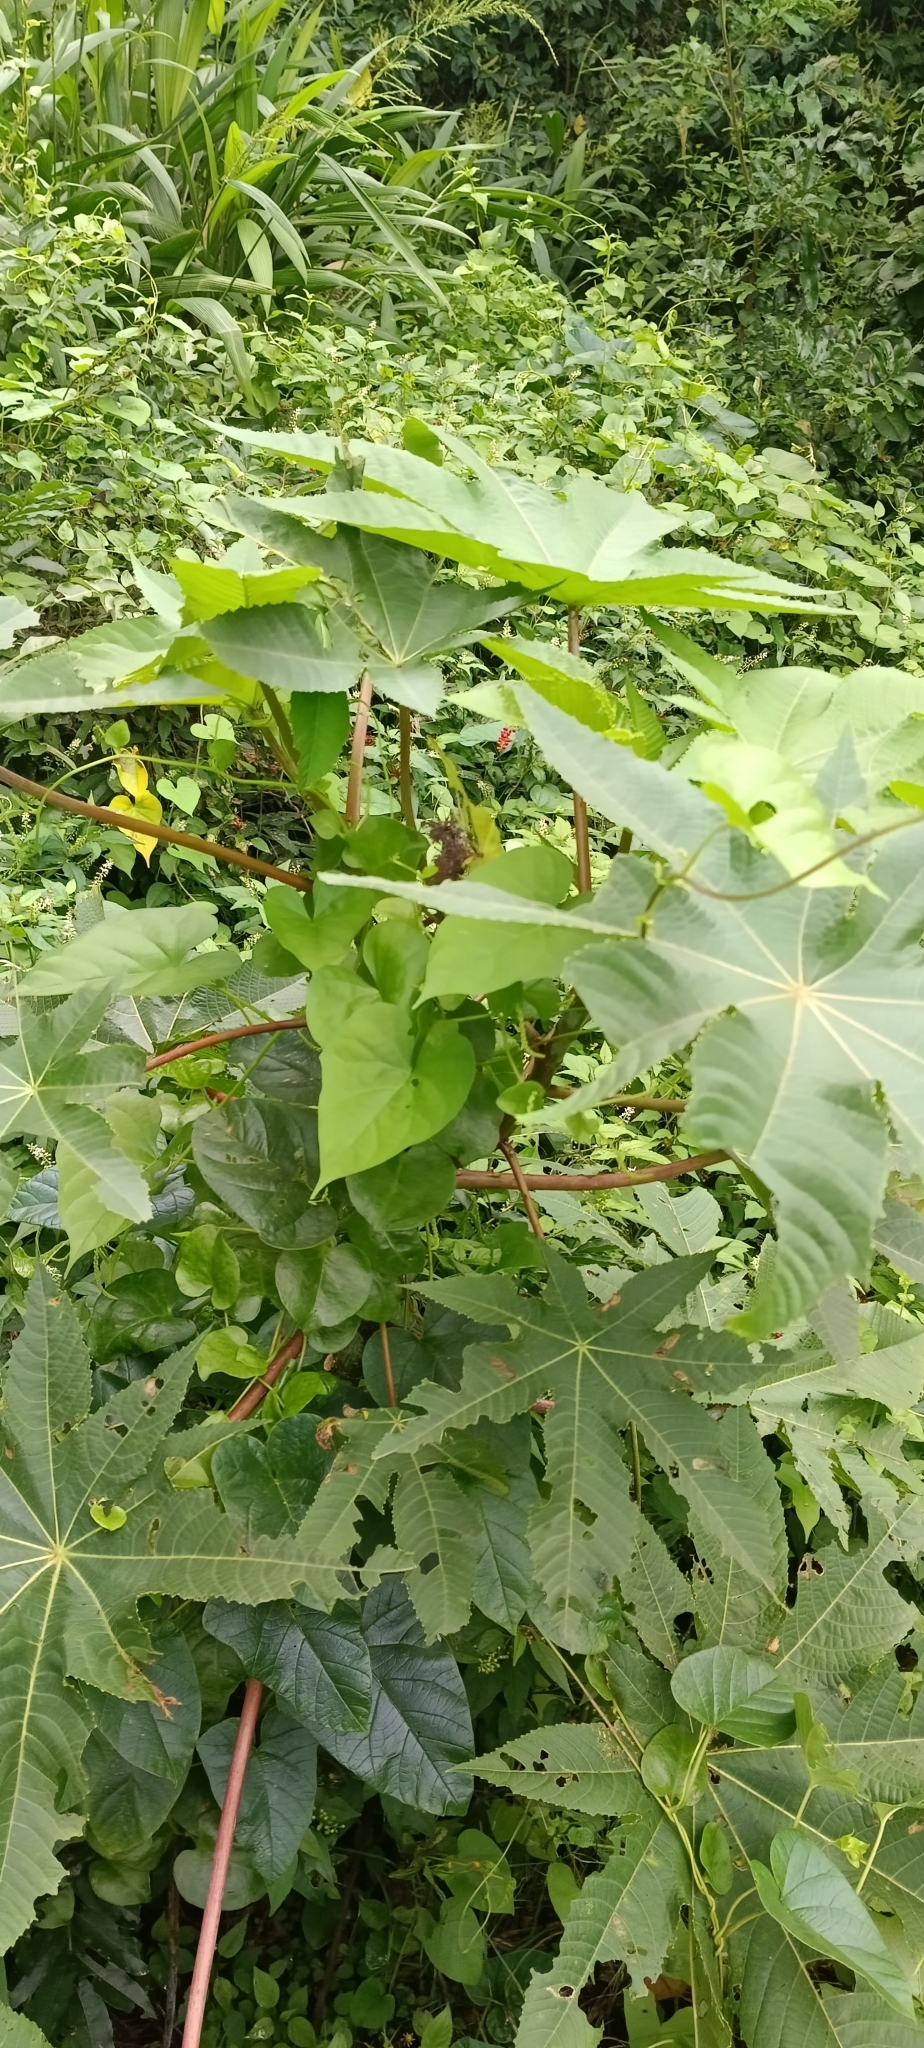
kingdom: Plantae
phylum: Tracheophyta
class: Magnoliopsida
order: Malpighiales
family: Euphorbiaceae
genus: Ricinus
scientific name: Ricinus communis
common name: Castor-oil-plant
